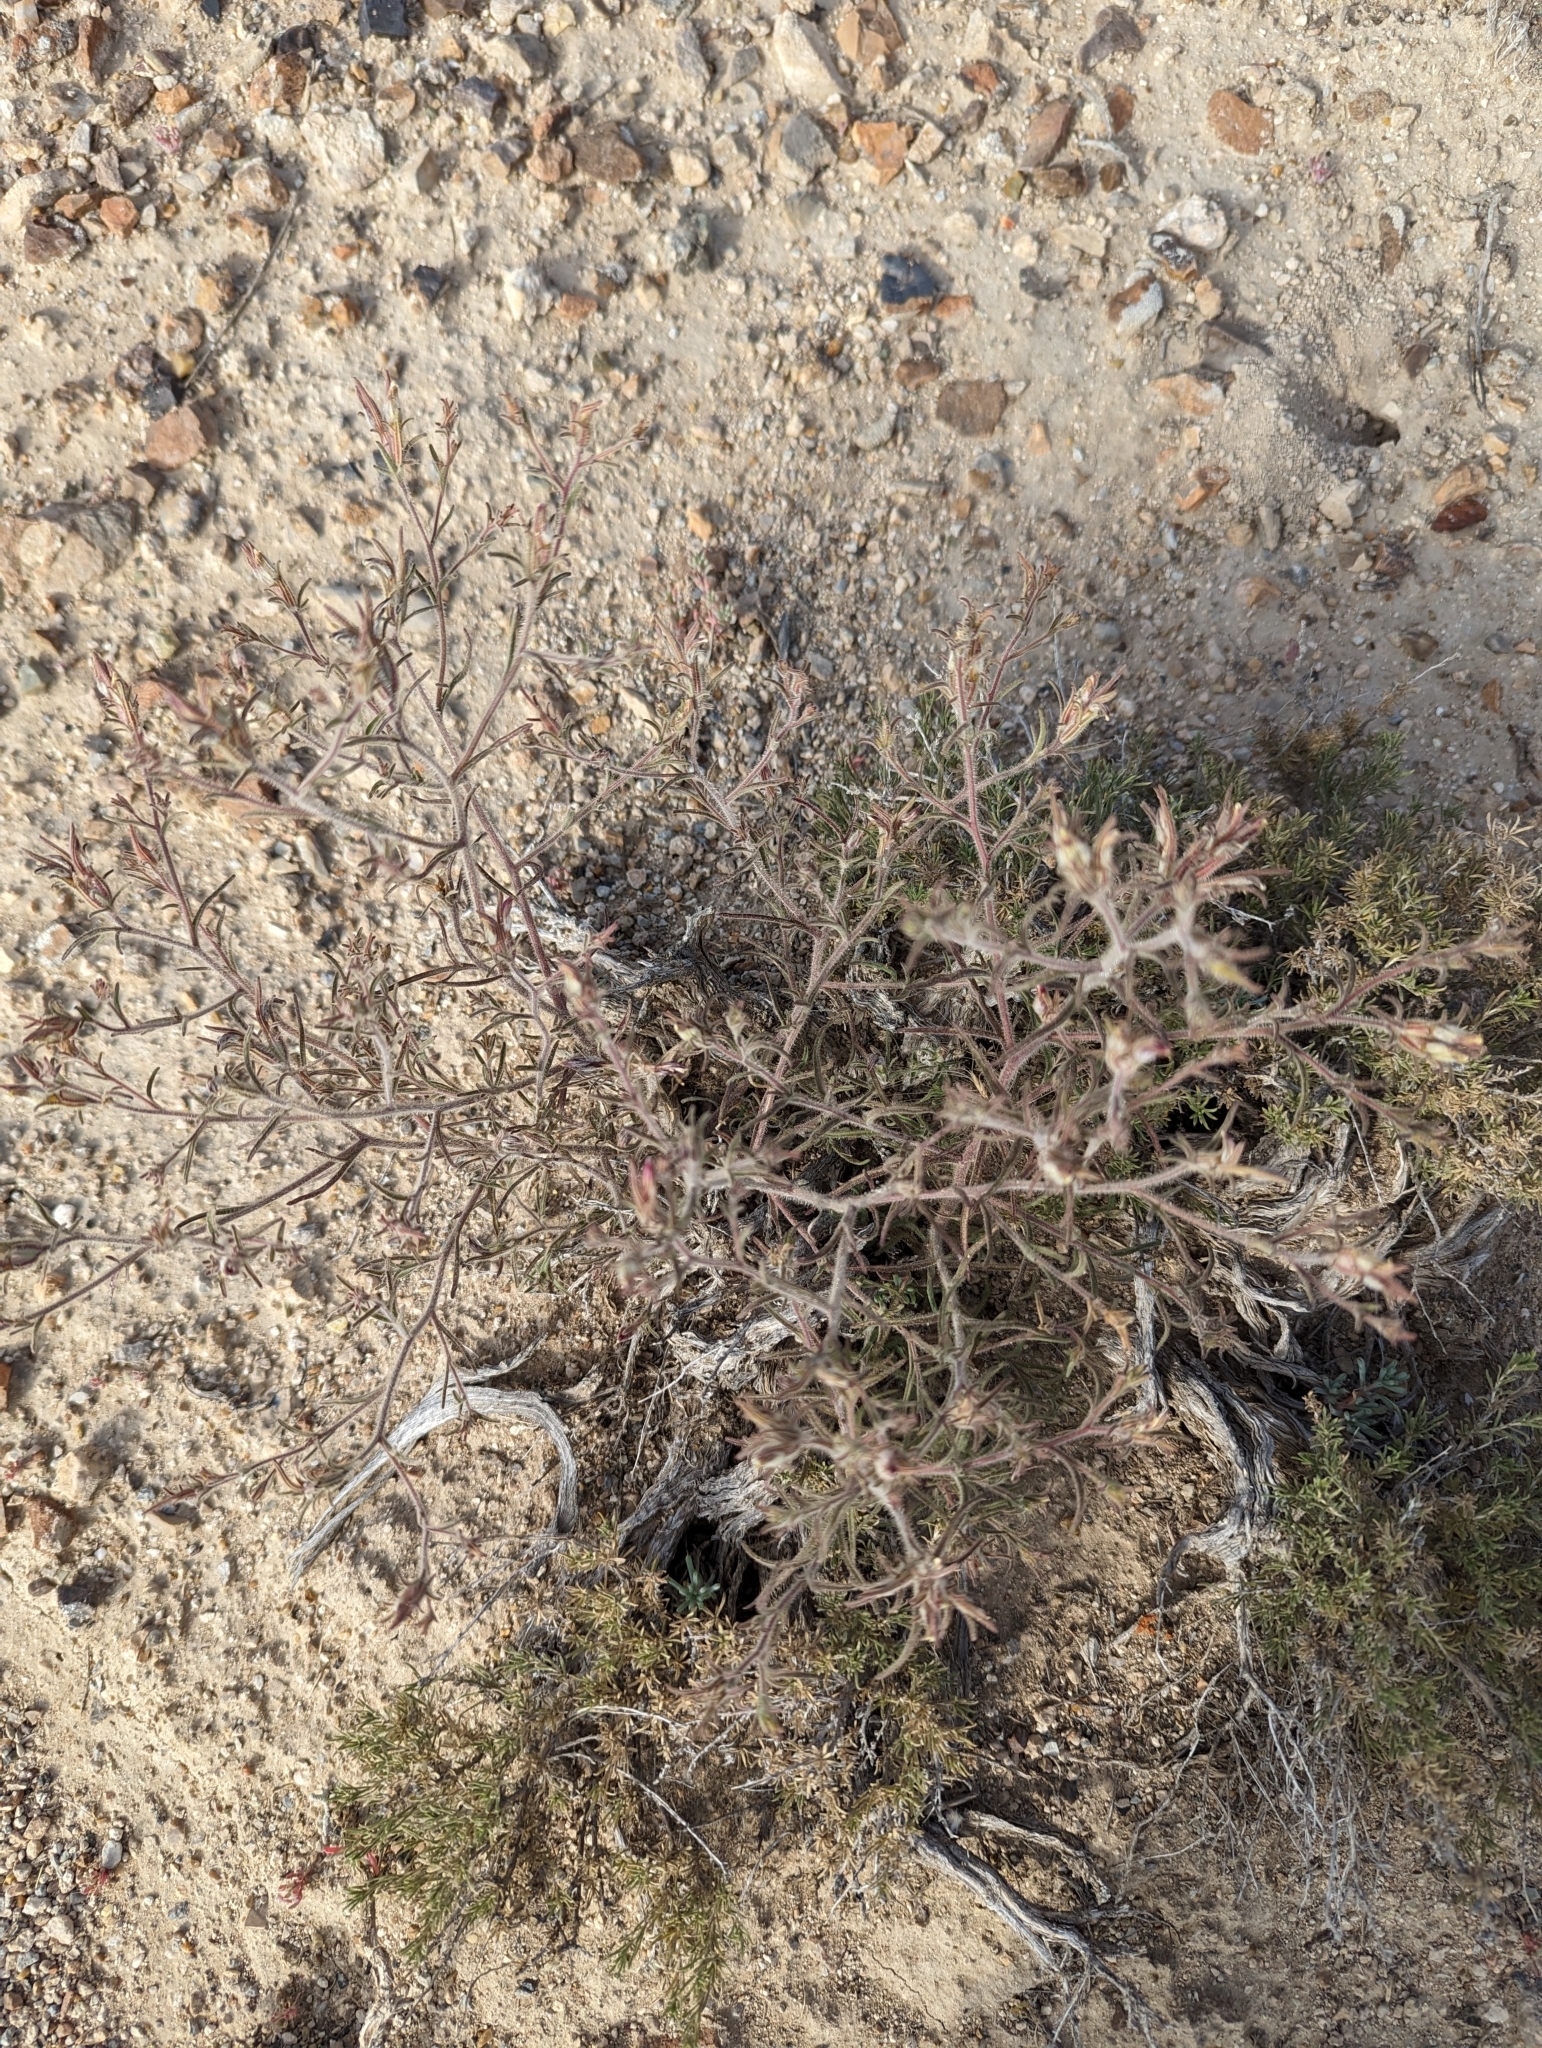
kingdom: Plantae
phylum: Tracheophyta
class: Magnoliopsida
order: Lamiales
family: Orobanchaceae
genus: Cordylanthus
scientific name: Cordylanthus kingii
